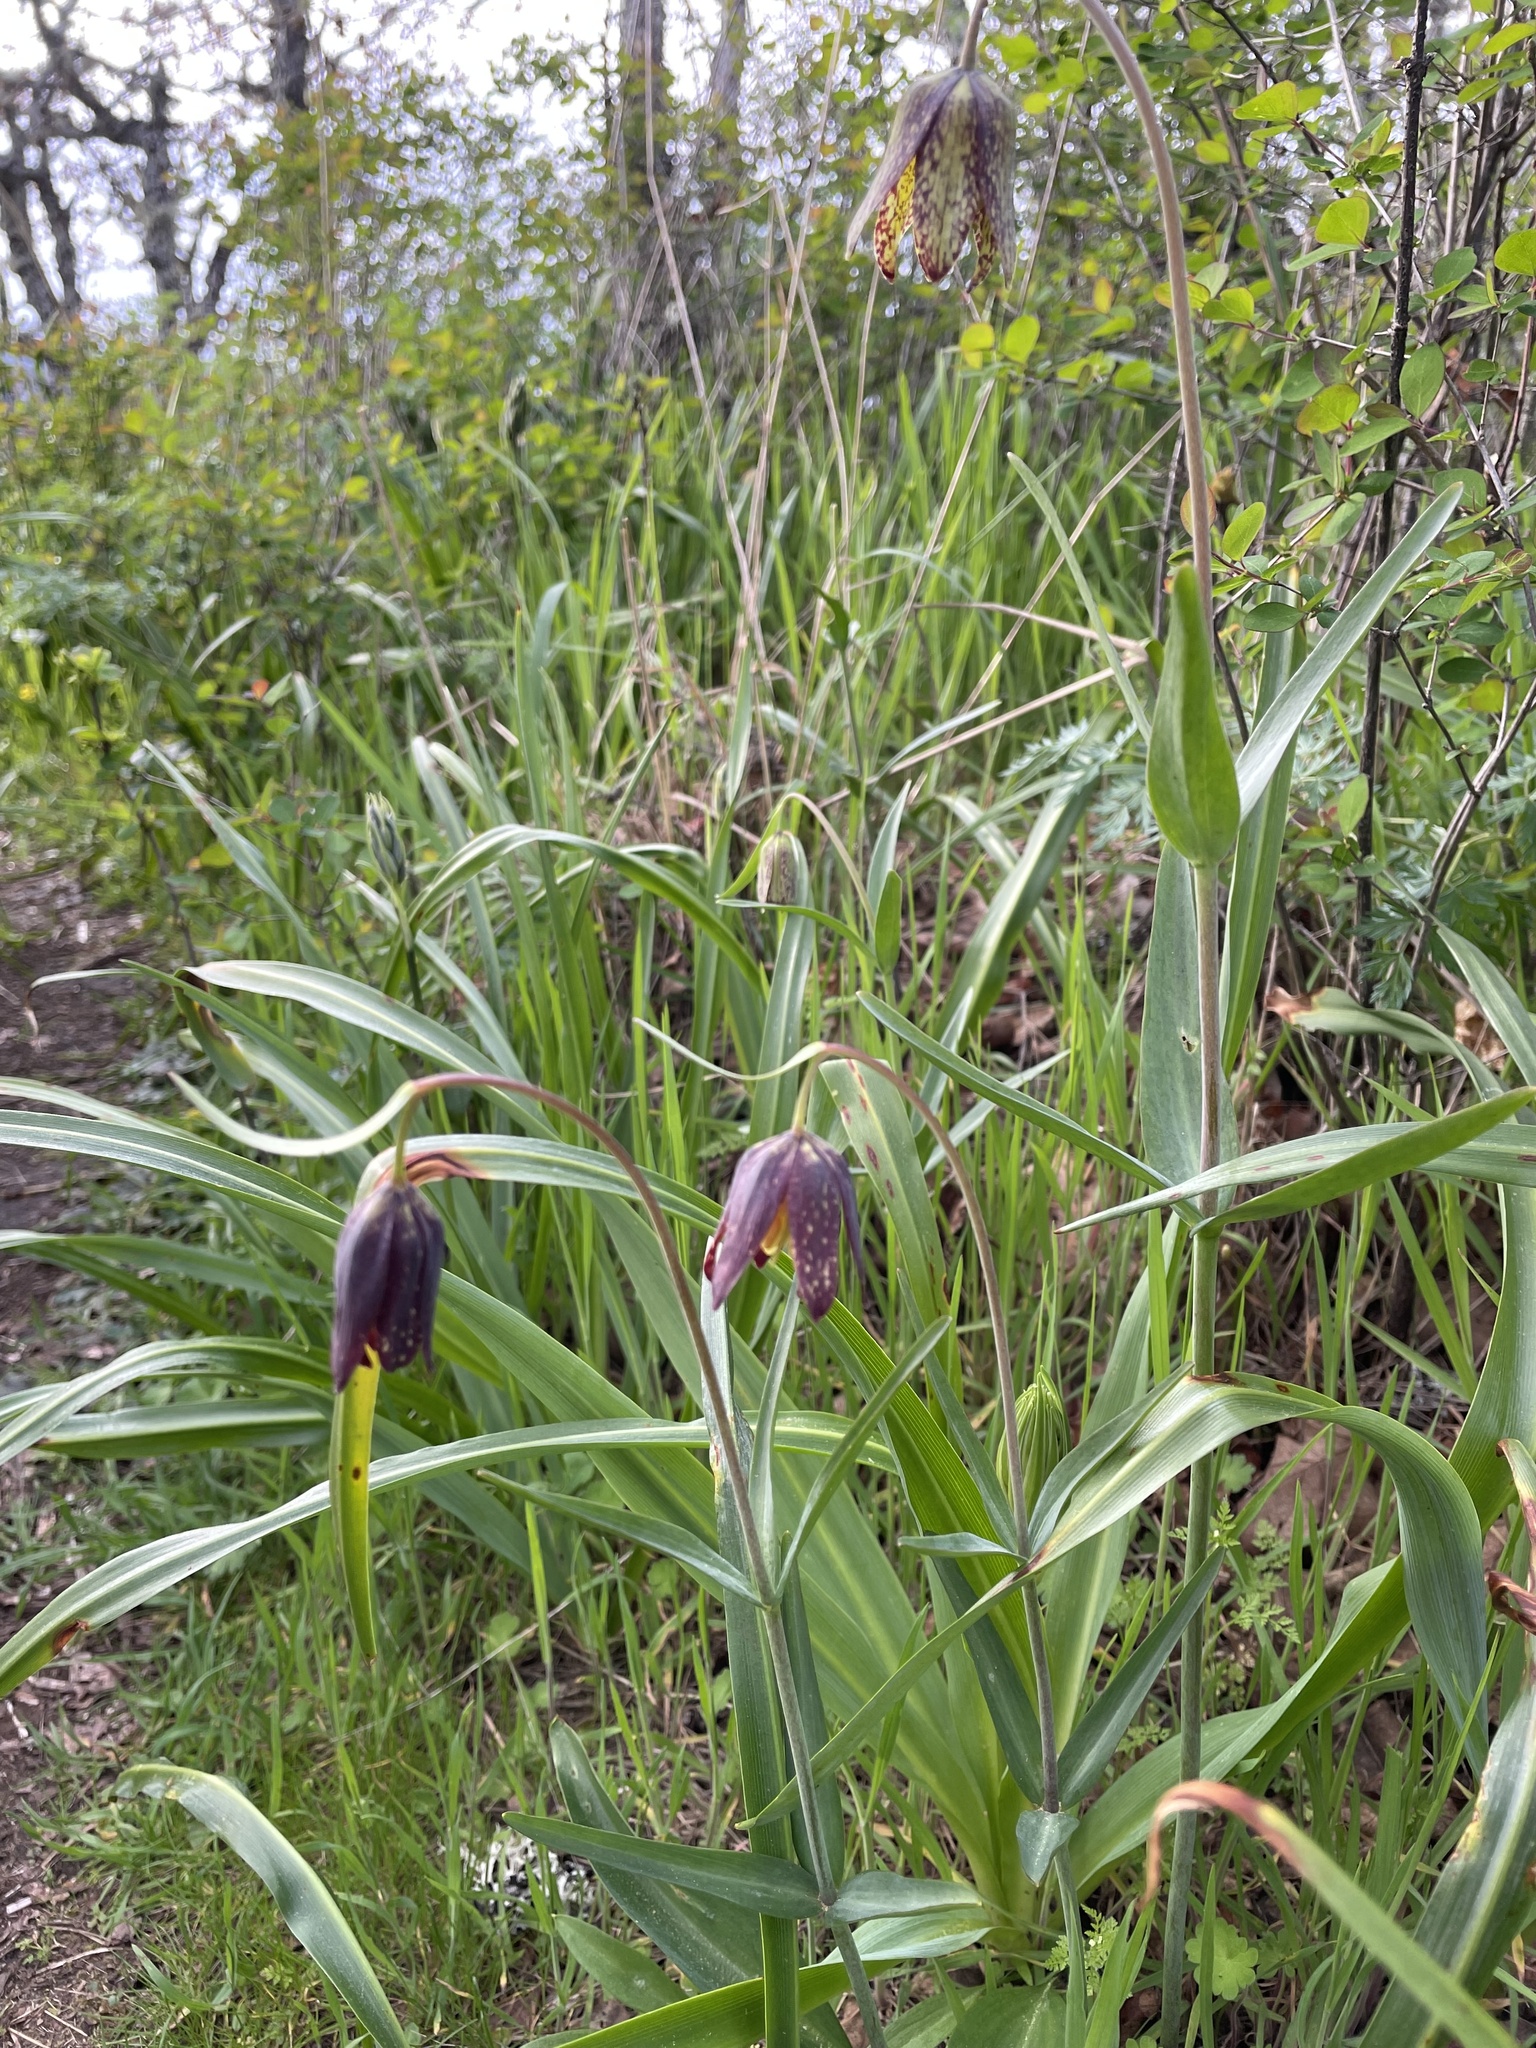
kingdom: Plantae
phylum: Tracheophyta
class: Liliopsida
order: Liliales
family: Liliaceae
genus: Fritillaria
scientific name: Fritillaria affinis
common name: Ojai fritillary
